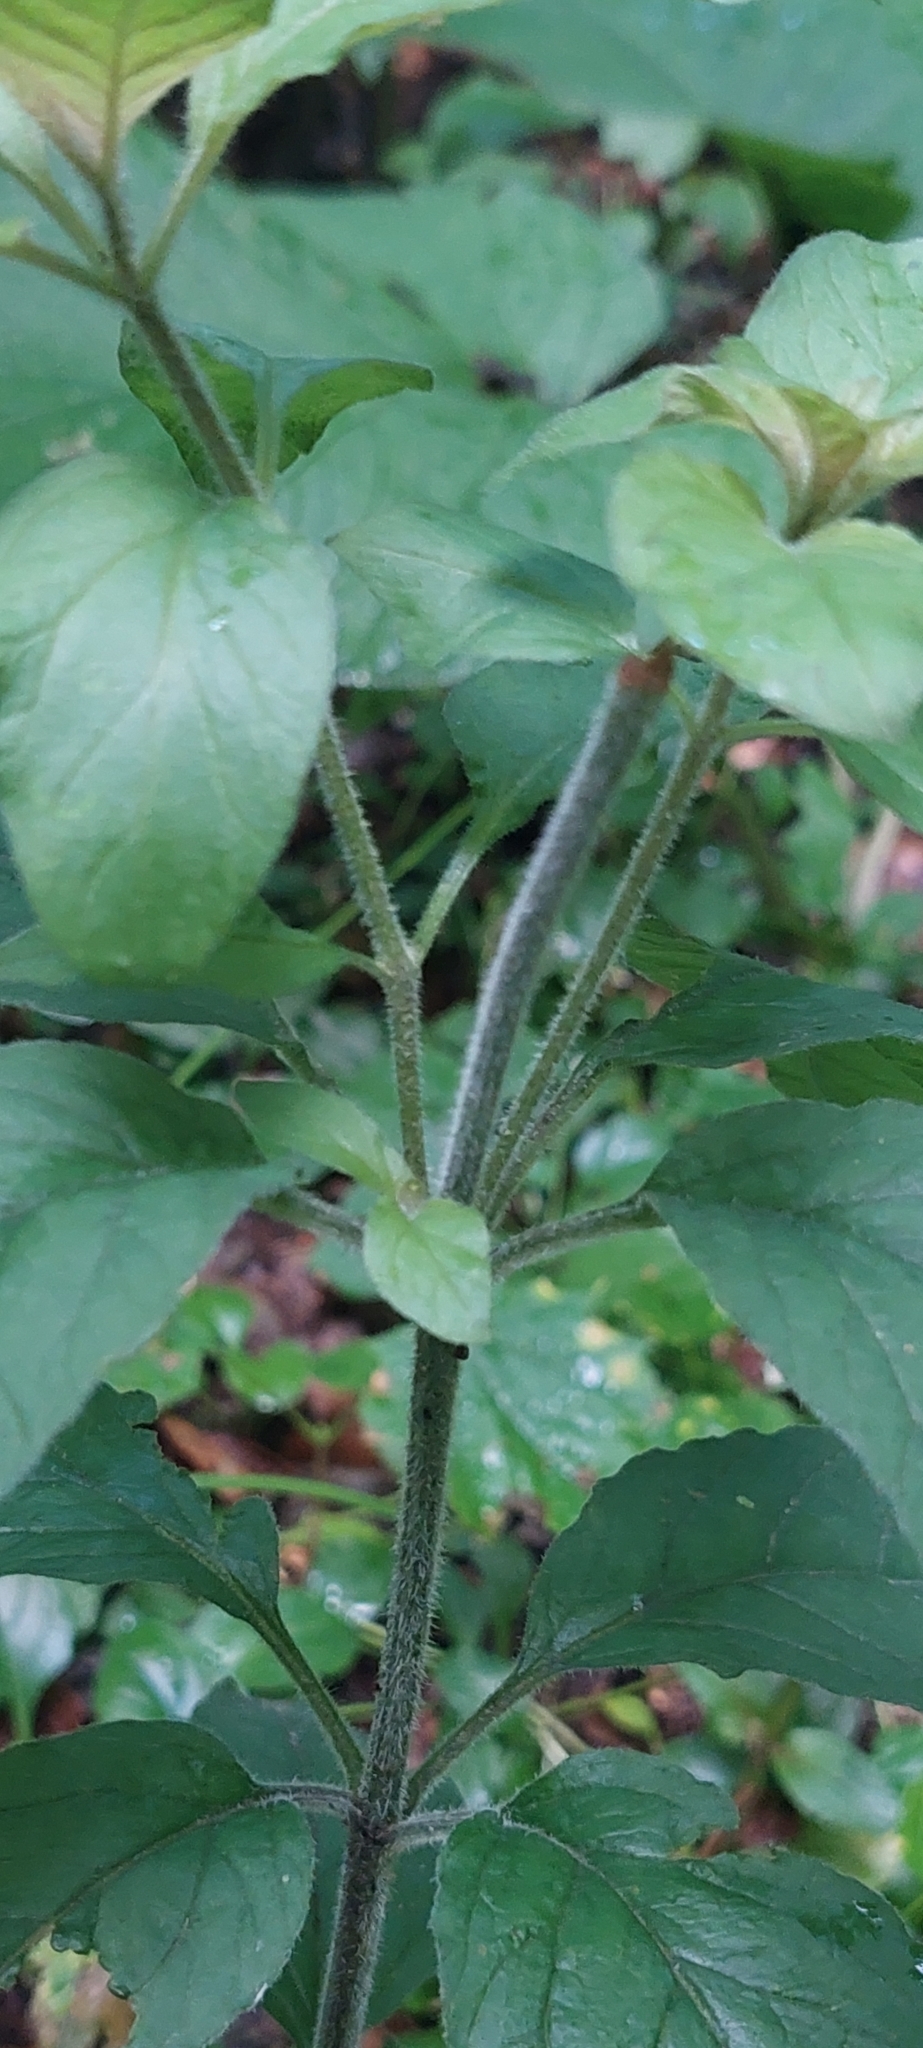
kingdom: Plantae
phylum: Tracheophyta
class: Magnoliopsida
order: Ericales
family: Primulaceae
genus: Lysimachia
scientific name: Lysimachia verticillaris
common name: Yellow loosestrife
